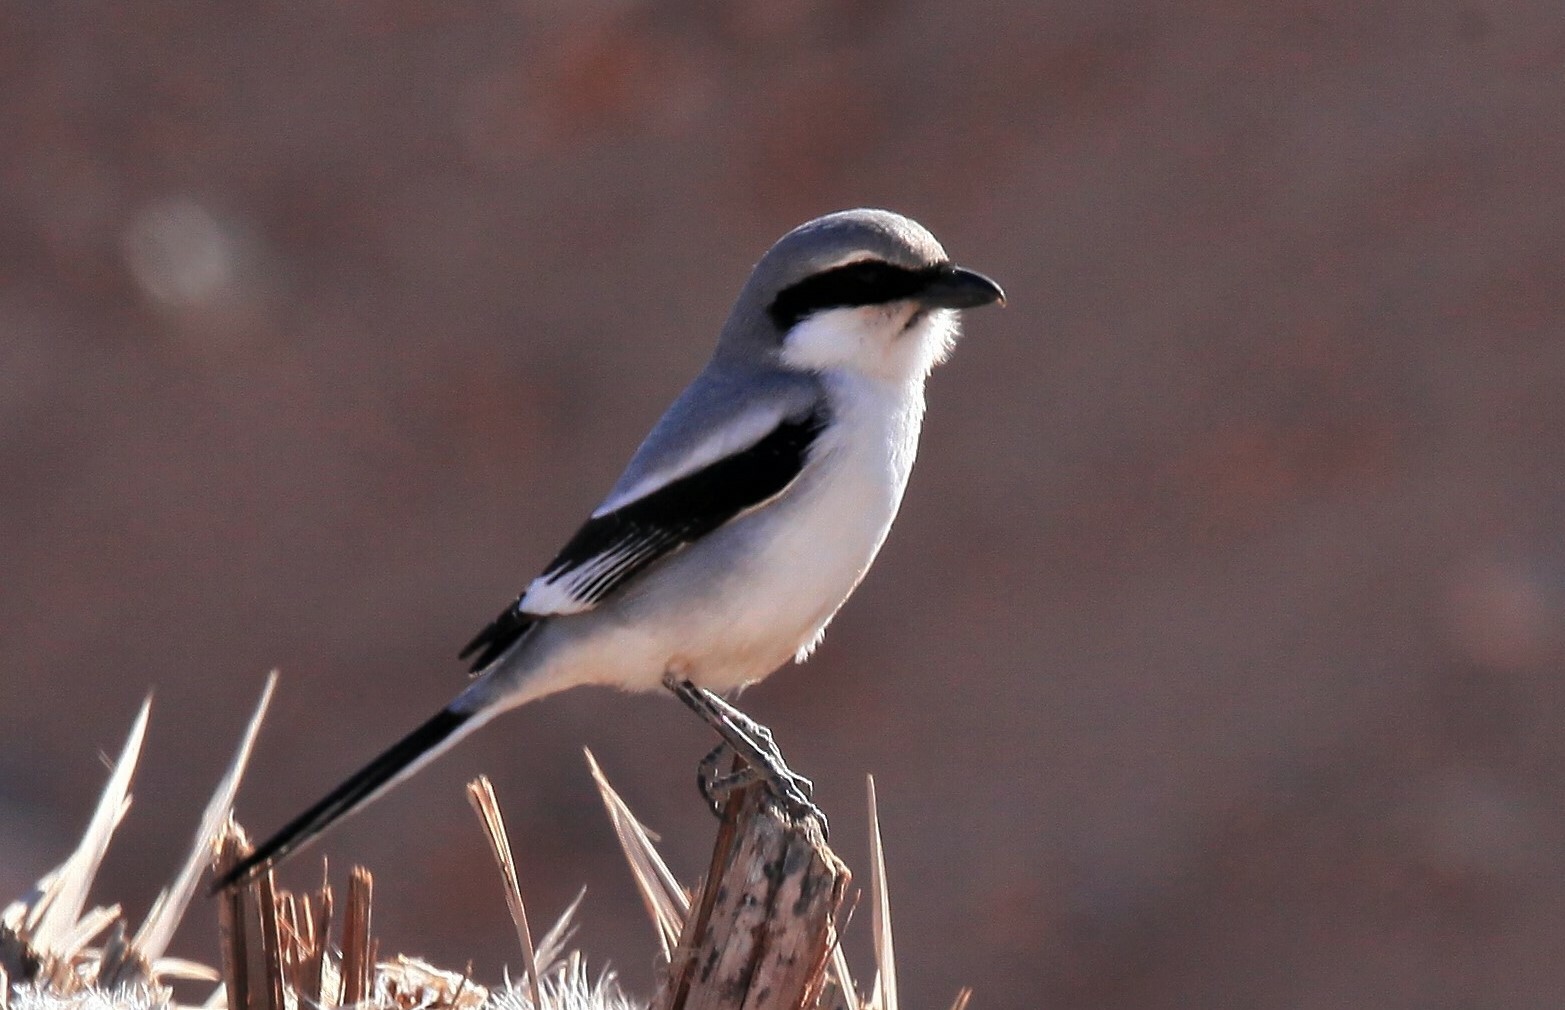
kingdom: Animalia
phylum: Chordata
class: Aves
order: Passeriformes
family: Laniidae
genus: Lanius
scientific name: Lanius excubitor
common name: Great grey shrike
